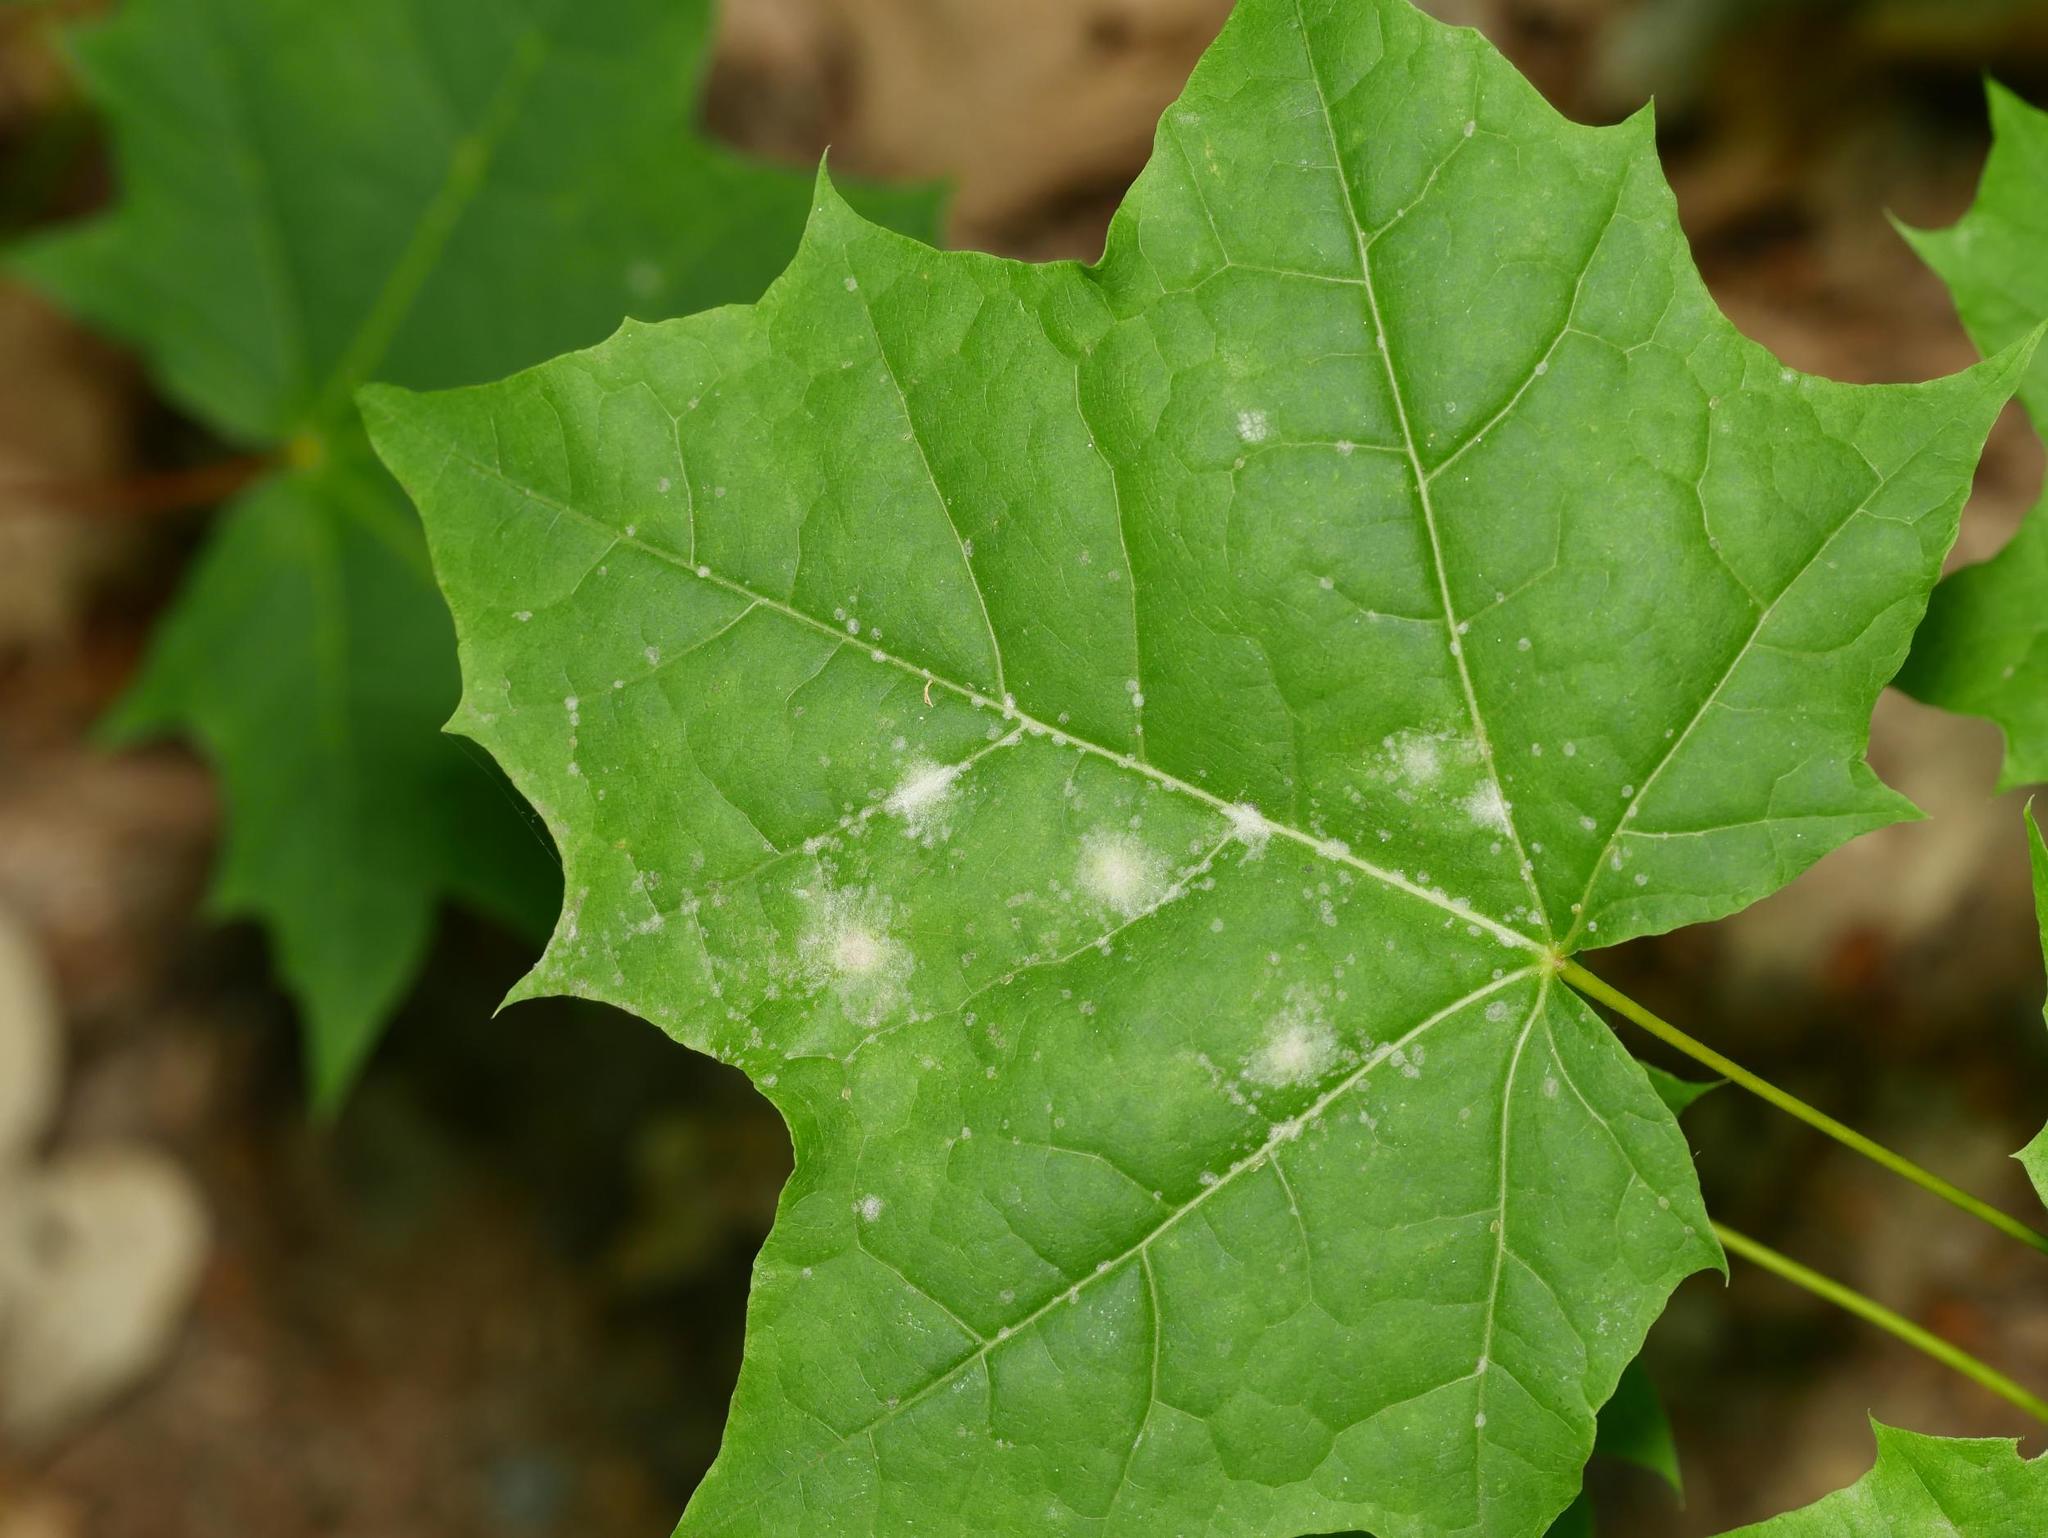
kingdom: Fungi
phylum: Ascomycota
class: Leotiomycetes
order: Helotiales
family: Erysiphaceae
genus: Sawadaea
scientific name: Sawadaea tulasnei
